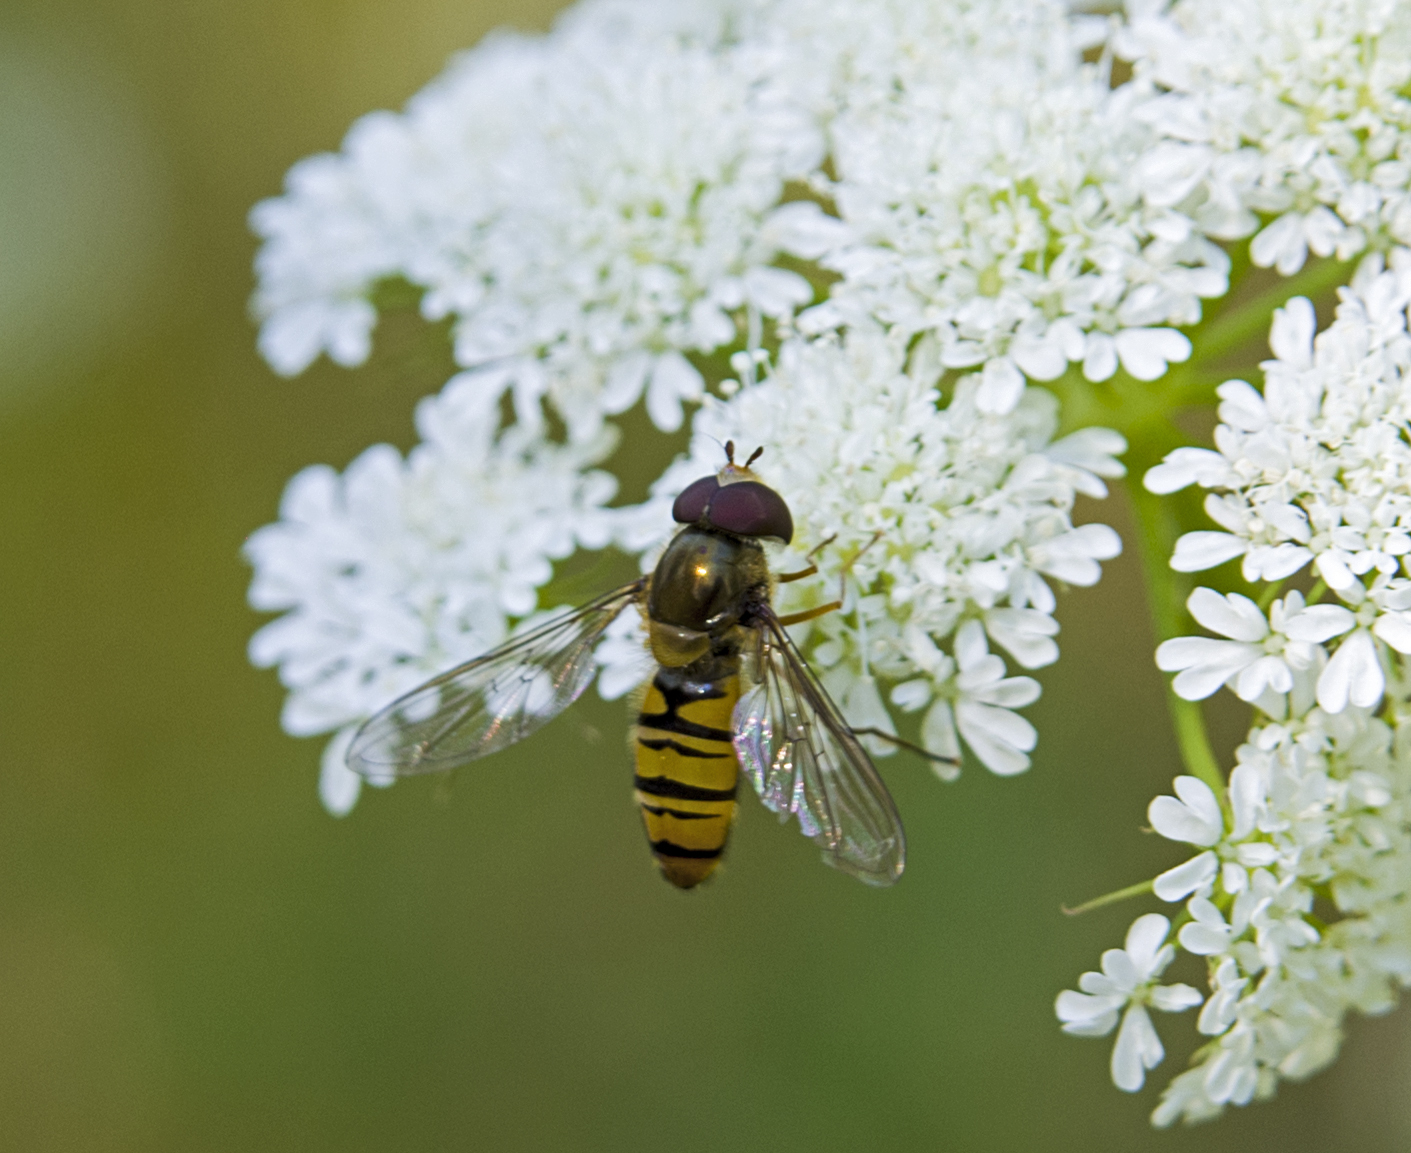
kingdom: Animalia
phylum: Arthropoda
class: Insecta
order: Diptera
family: Syrphidae
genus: Episyrphus
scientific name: Episyrphus balteatus
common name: Marmalade hoverfly
